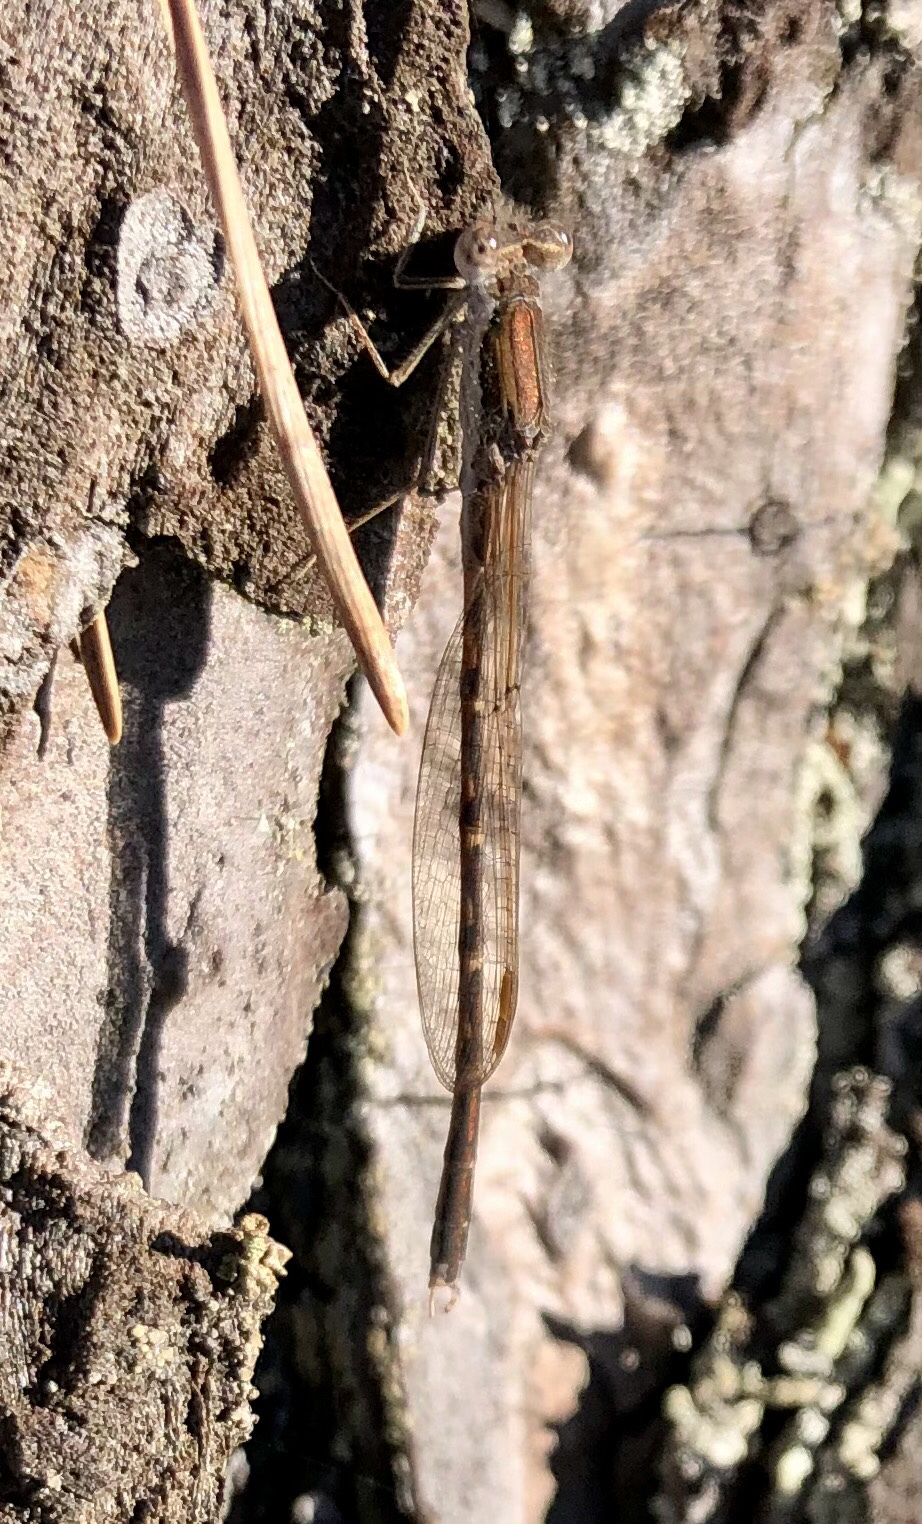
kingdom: Animalia
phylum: Arthropoda
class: Insecta
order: Odonata
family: Lestidae
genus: Sympecma
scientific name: Sympecma fusca
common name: Common winter damsel
